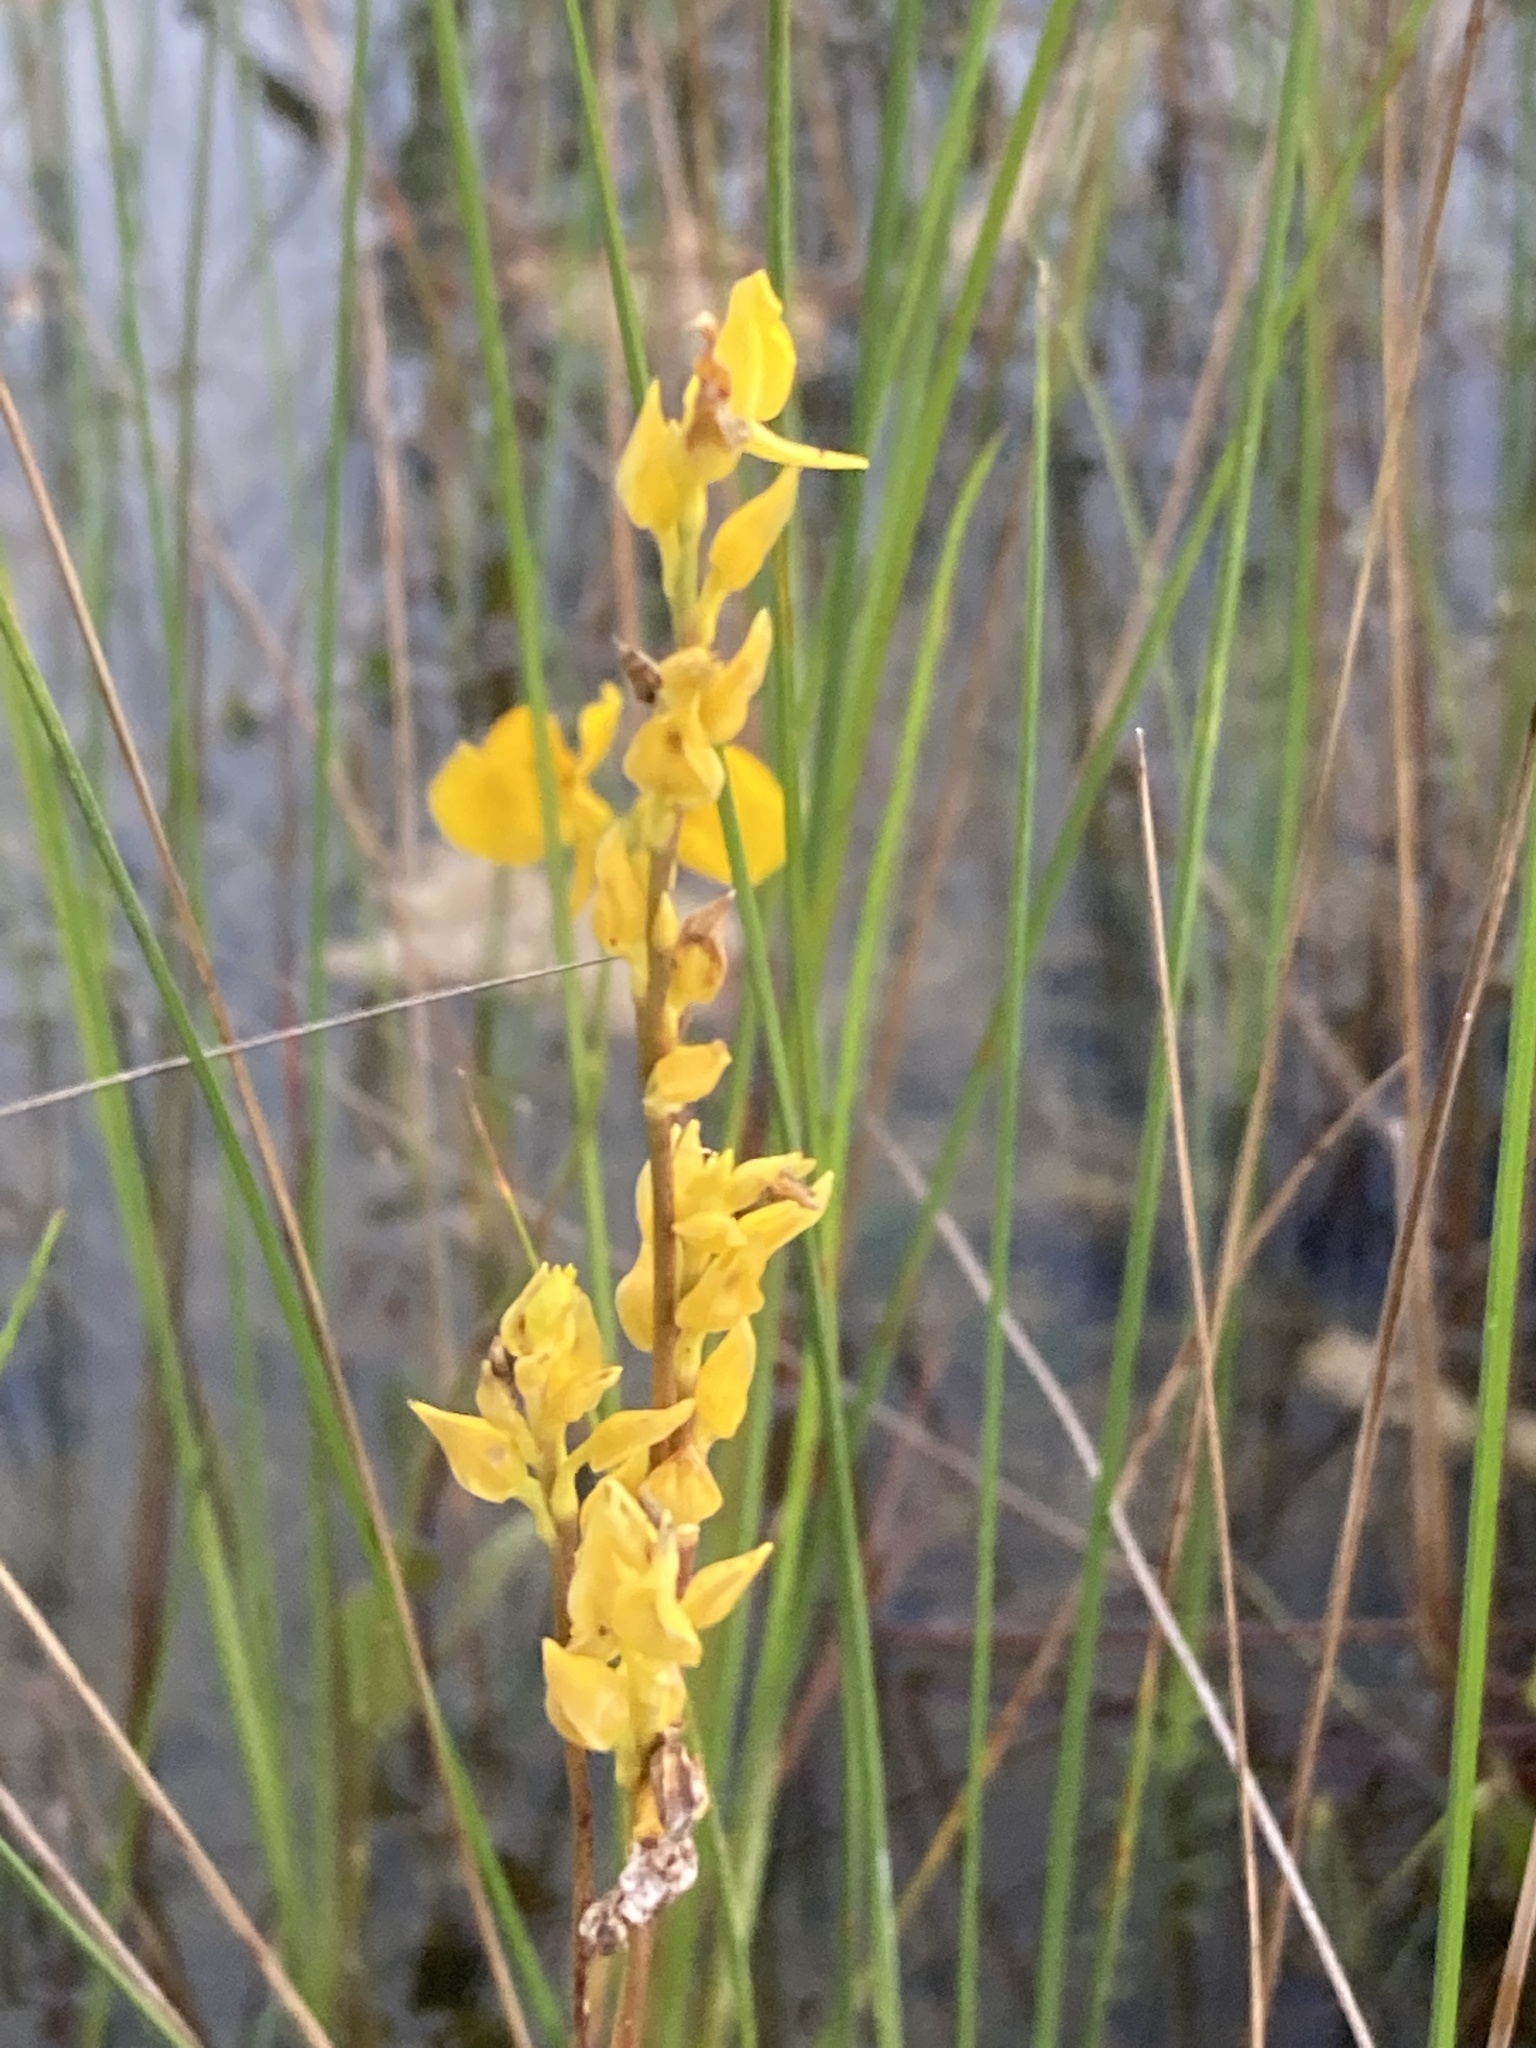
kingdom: Plantae
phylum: Tracheophyta
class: Magnoliopsida
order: Lamiales
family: Lentibulariaceae
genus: Utricularia
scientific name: Utricularia juncea
